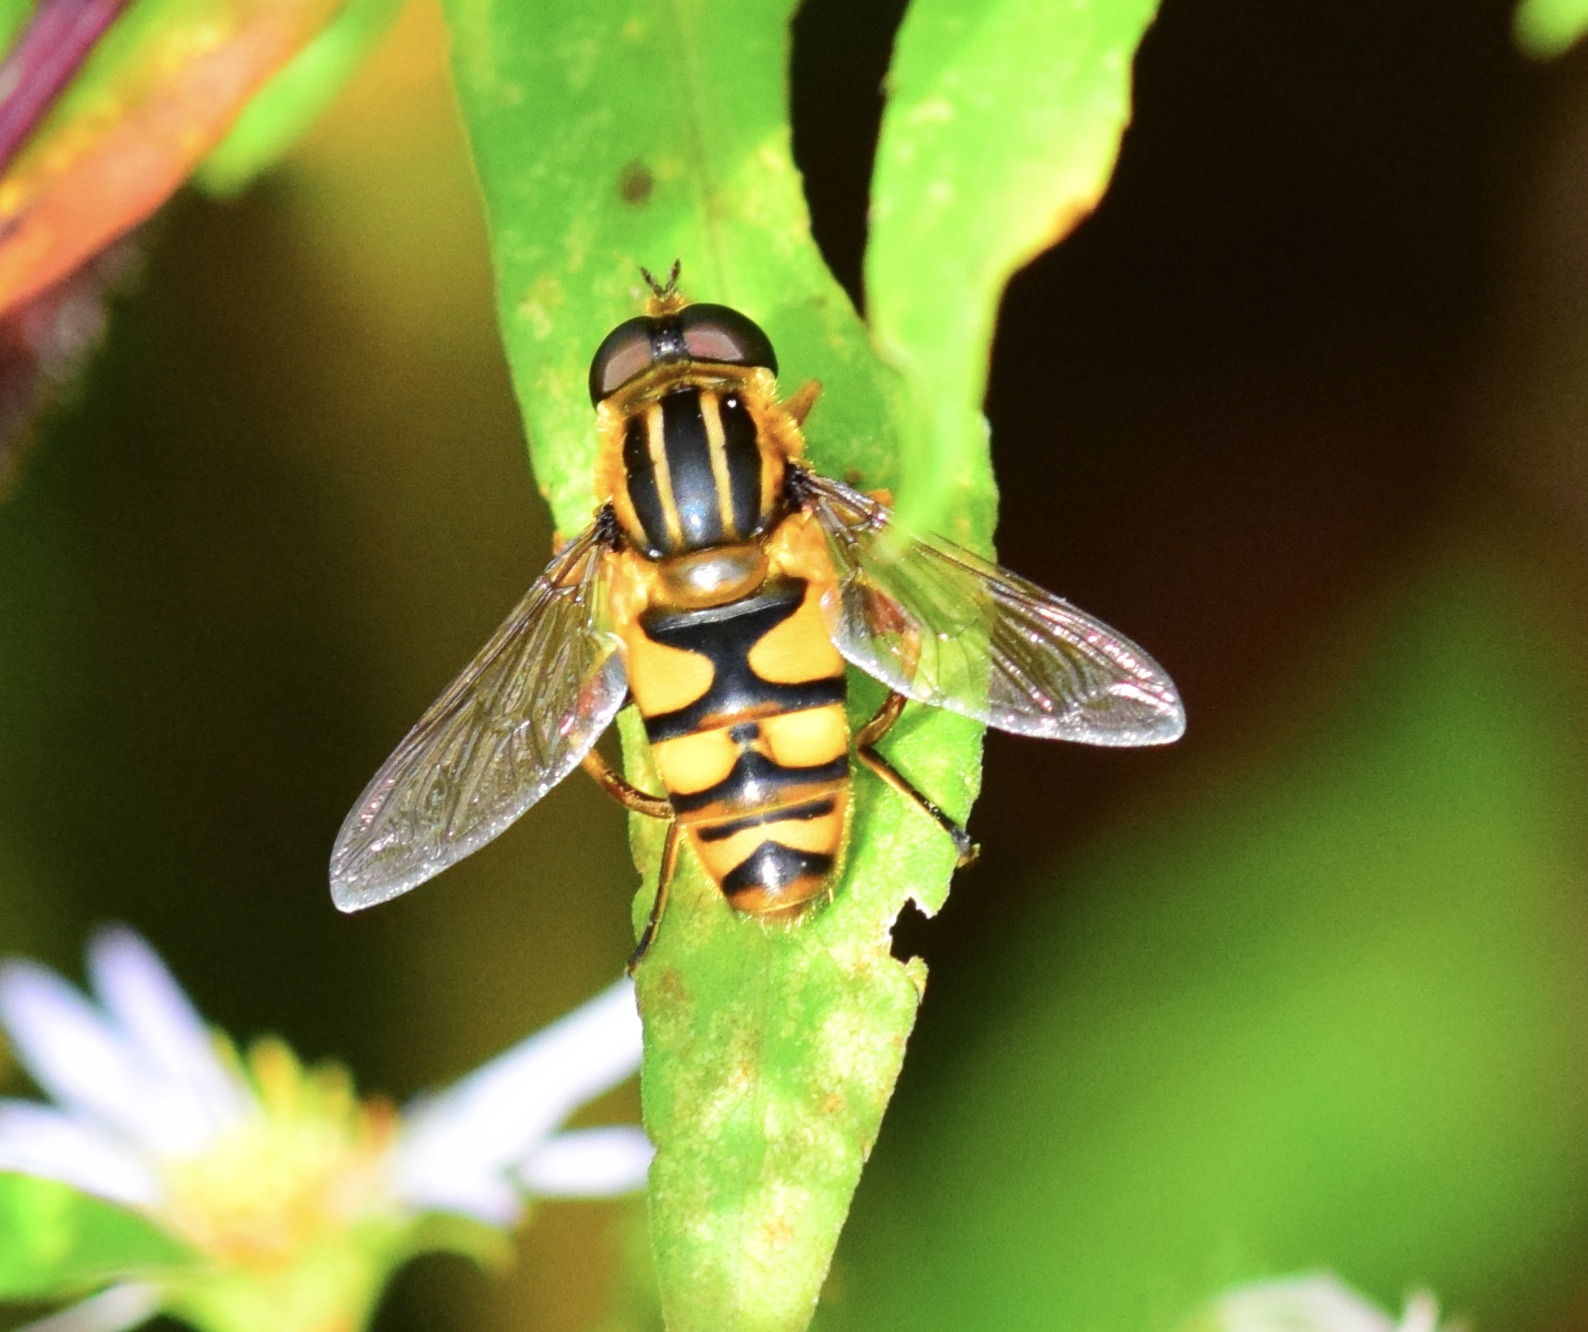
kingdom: Animalia
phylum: Arthropoda
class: Insecta
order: Diptera
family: Syrphidae
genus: Helophilus
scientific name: Helophilus fasciatus
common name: Narrow-headed marsh fly
